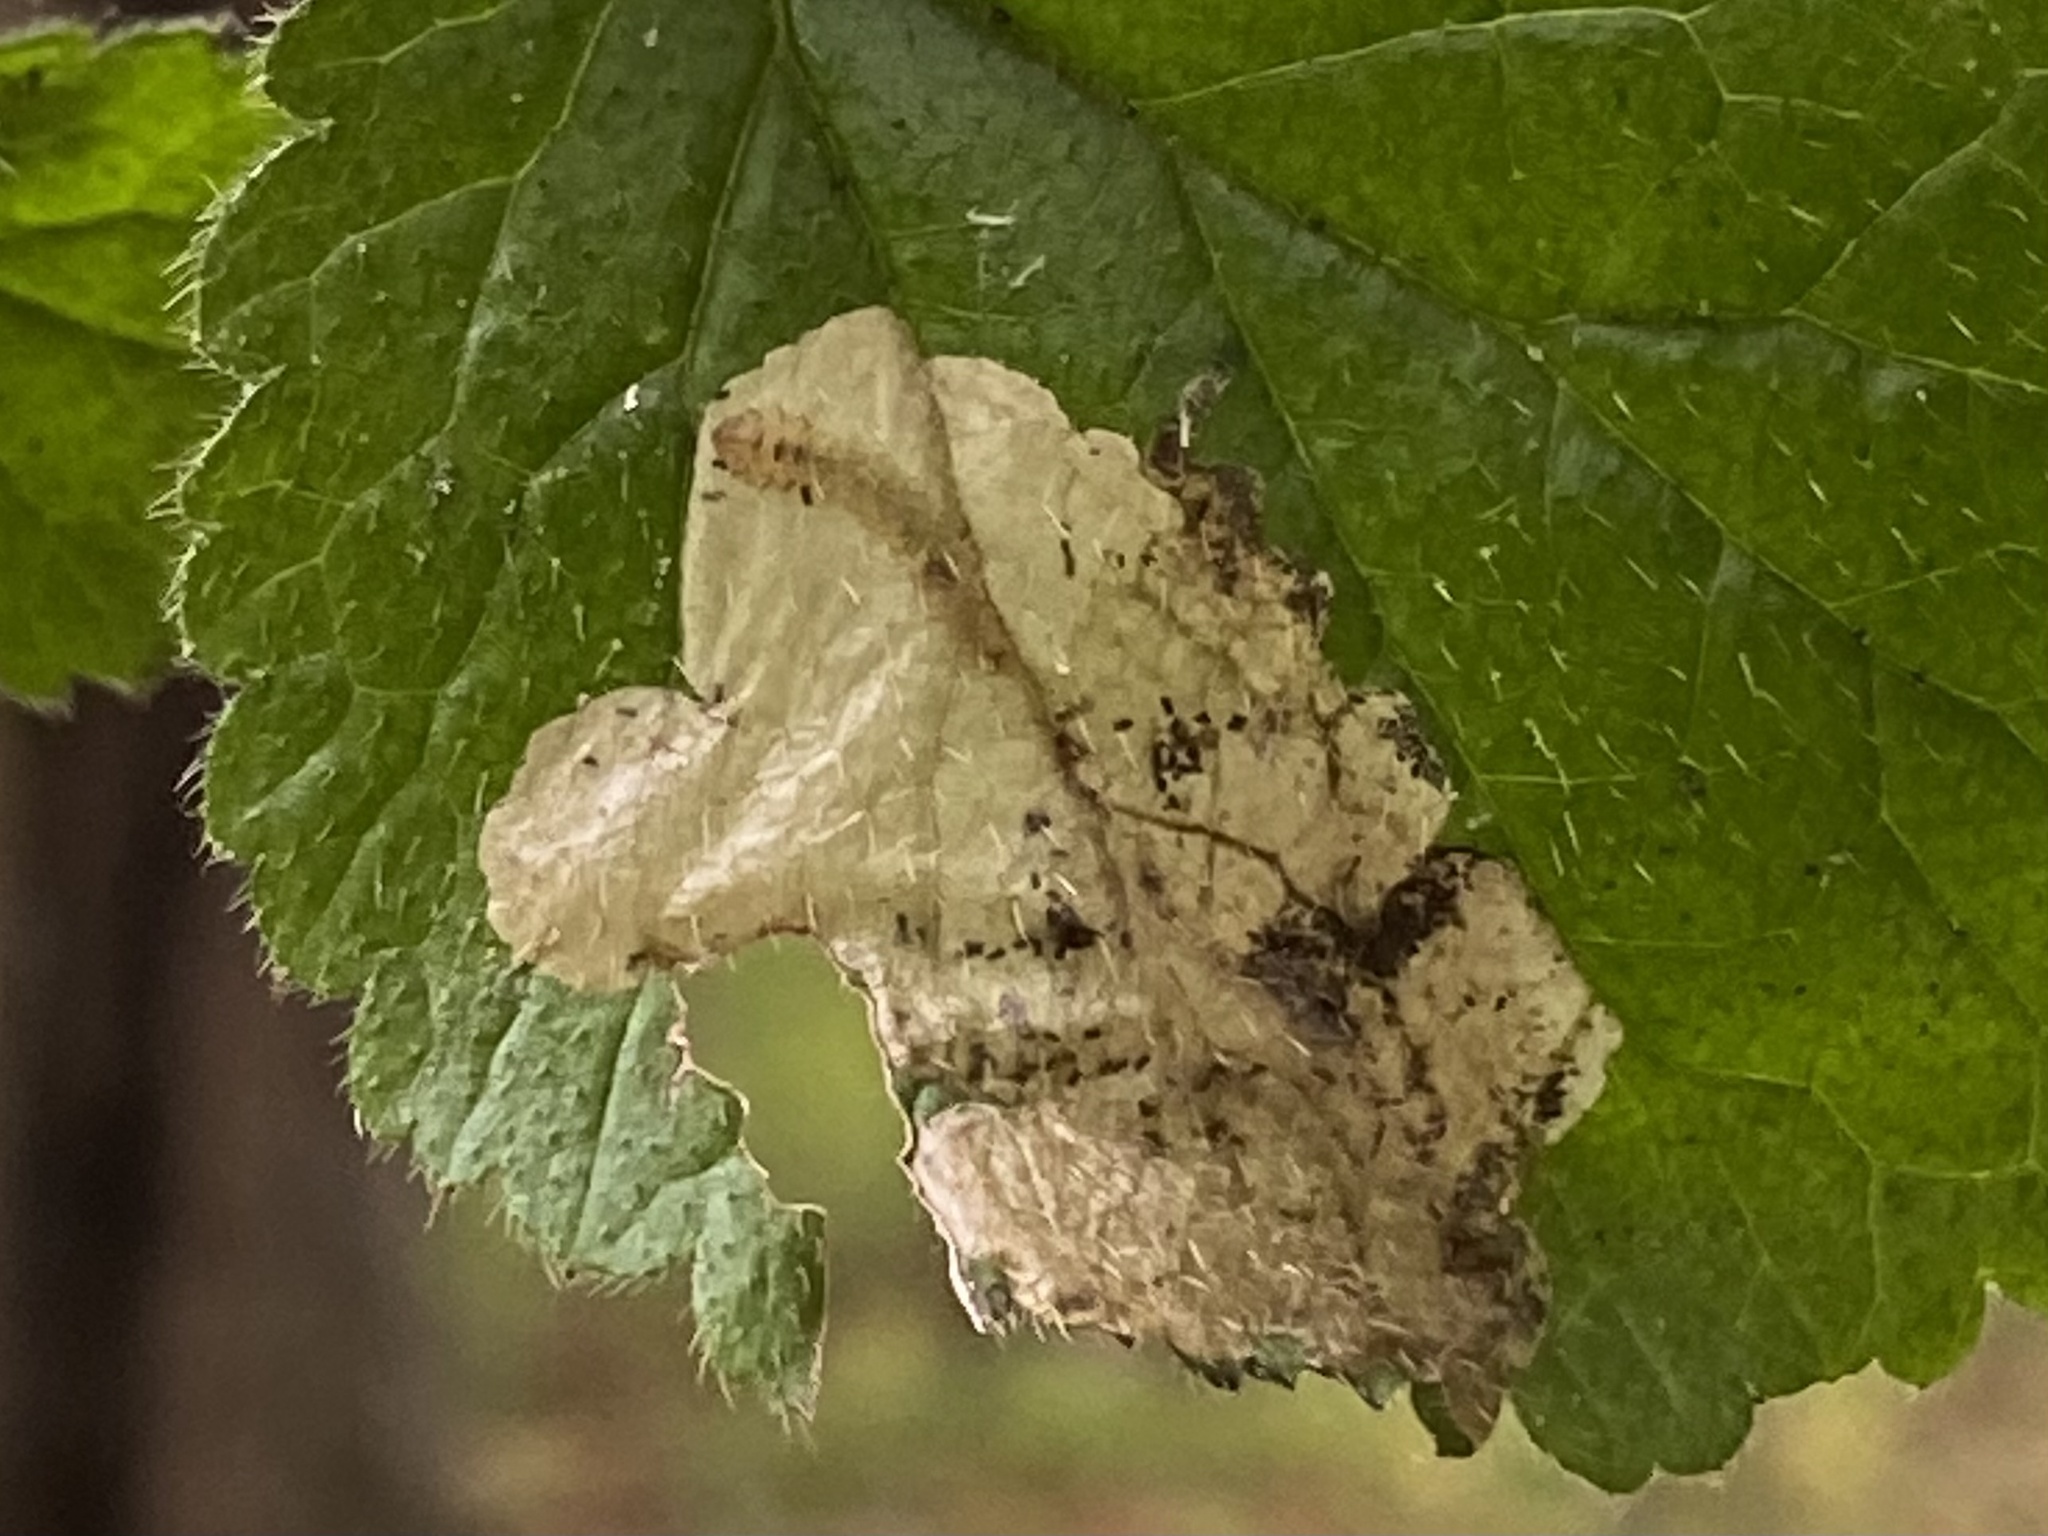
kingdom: Animalia
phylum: Arthropoda
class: Insecta
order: Hymenoptera
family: Tenthredinidae
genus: Metallus
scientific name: Metallus lanceolatus
